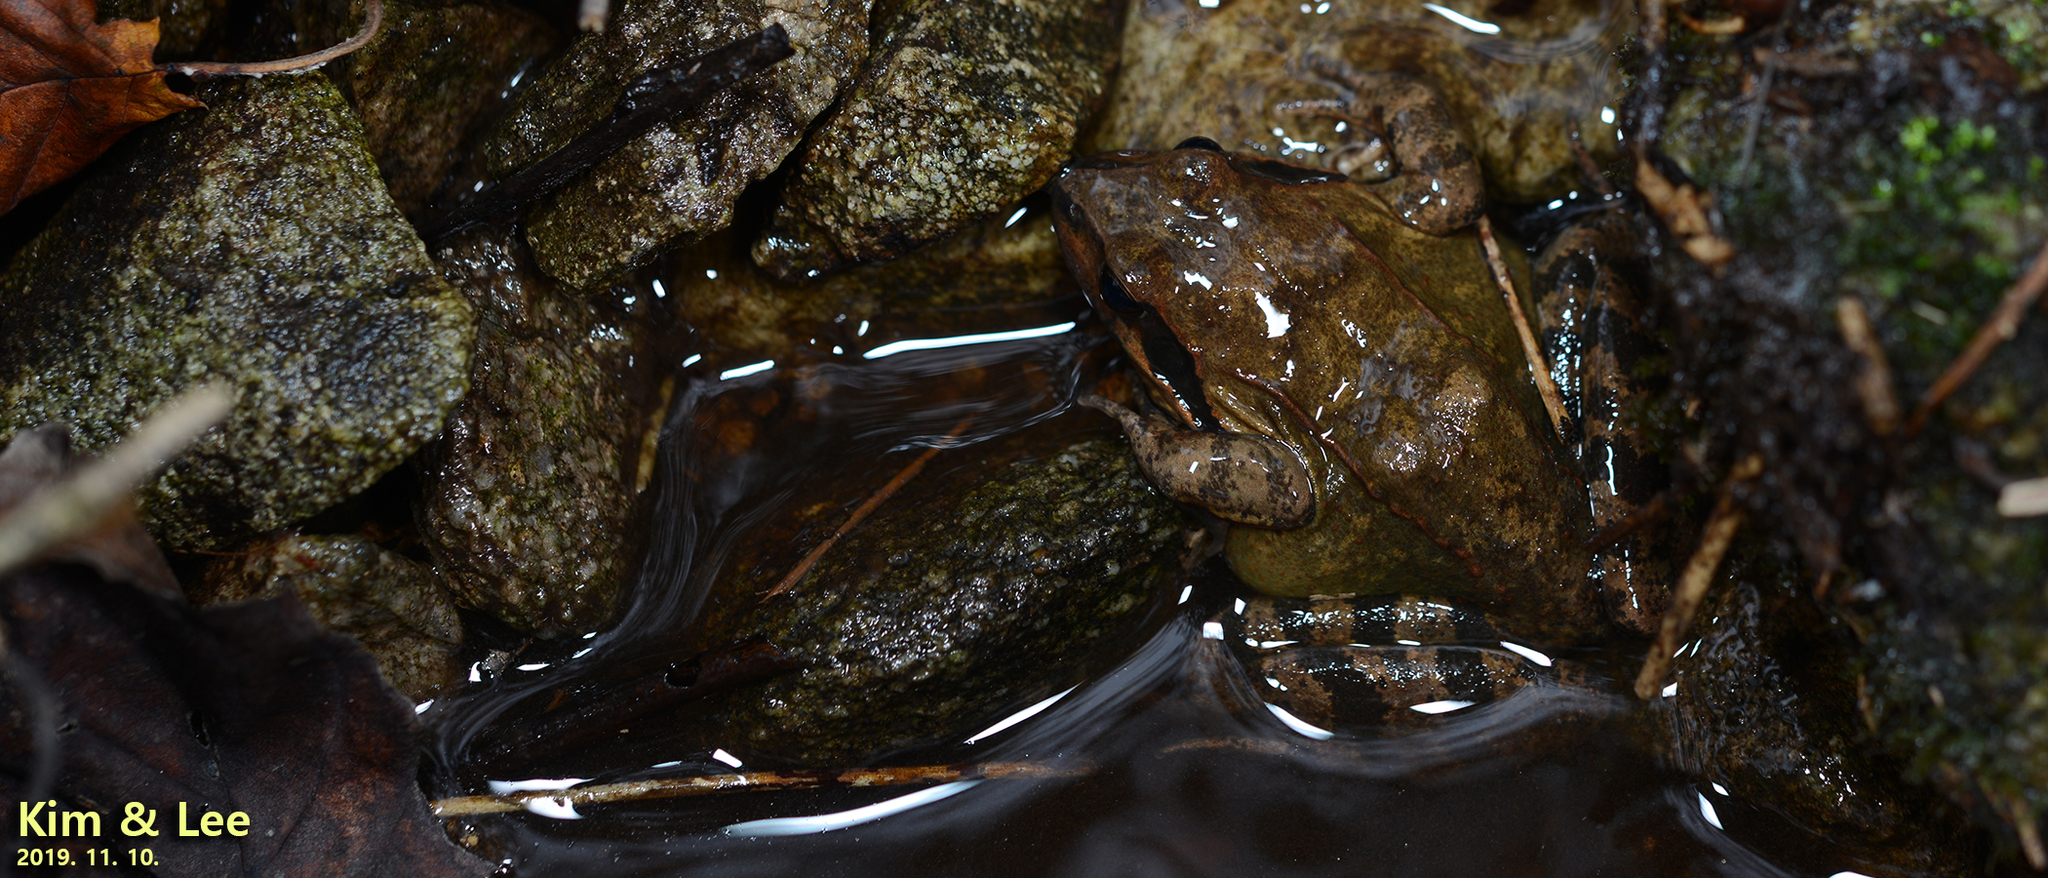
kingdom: Animalia
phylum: Chordata
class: Amphibia
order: Anura
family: Ranidae
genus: Rana
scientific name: Rana uenoi
